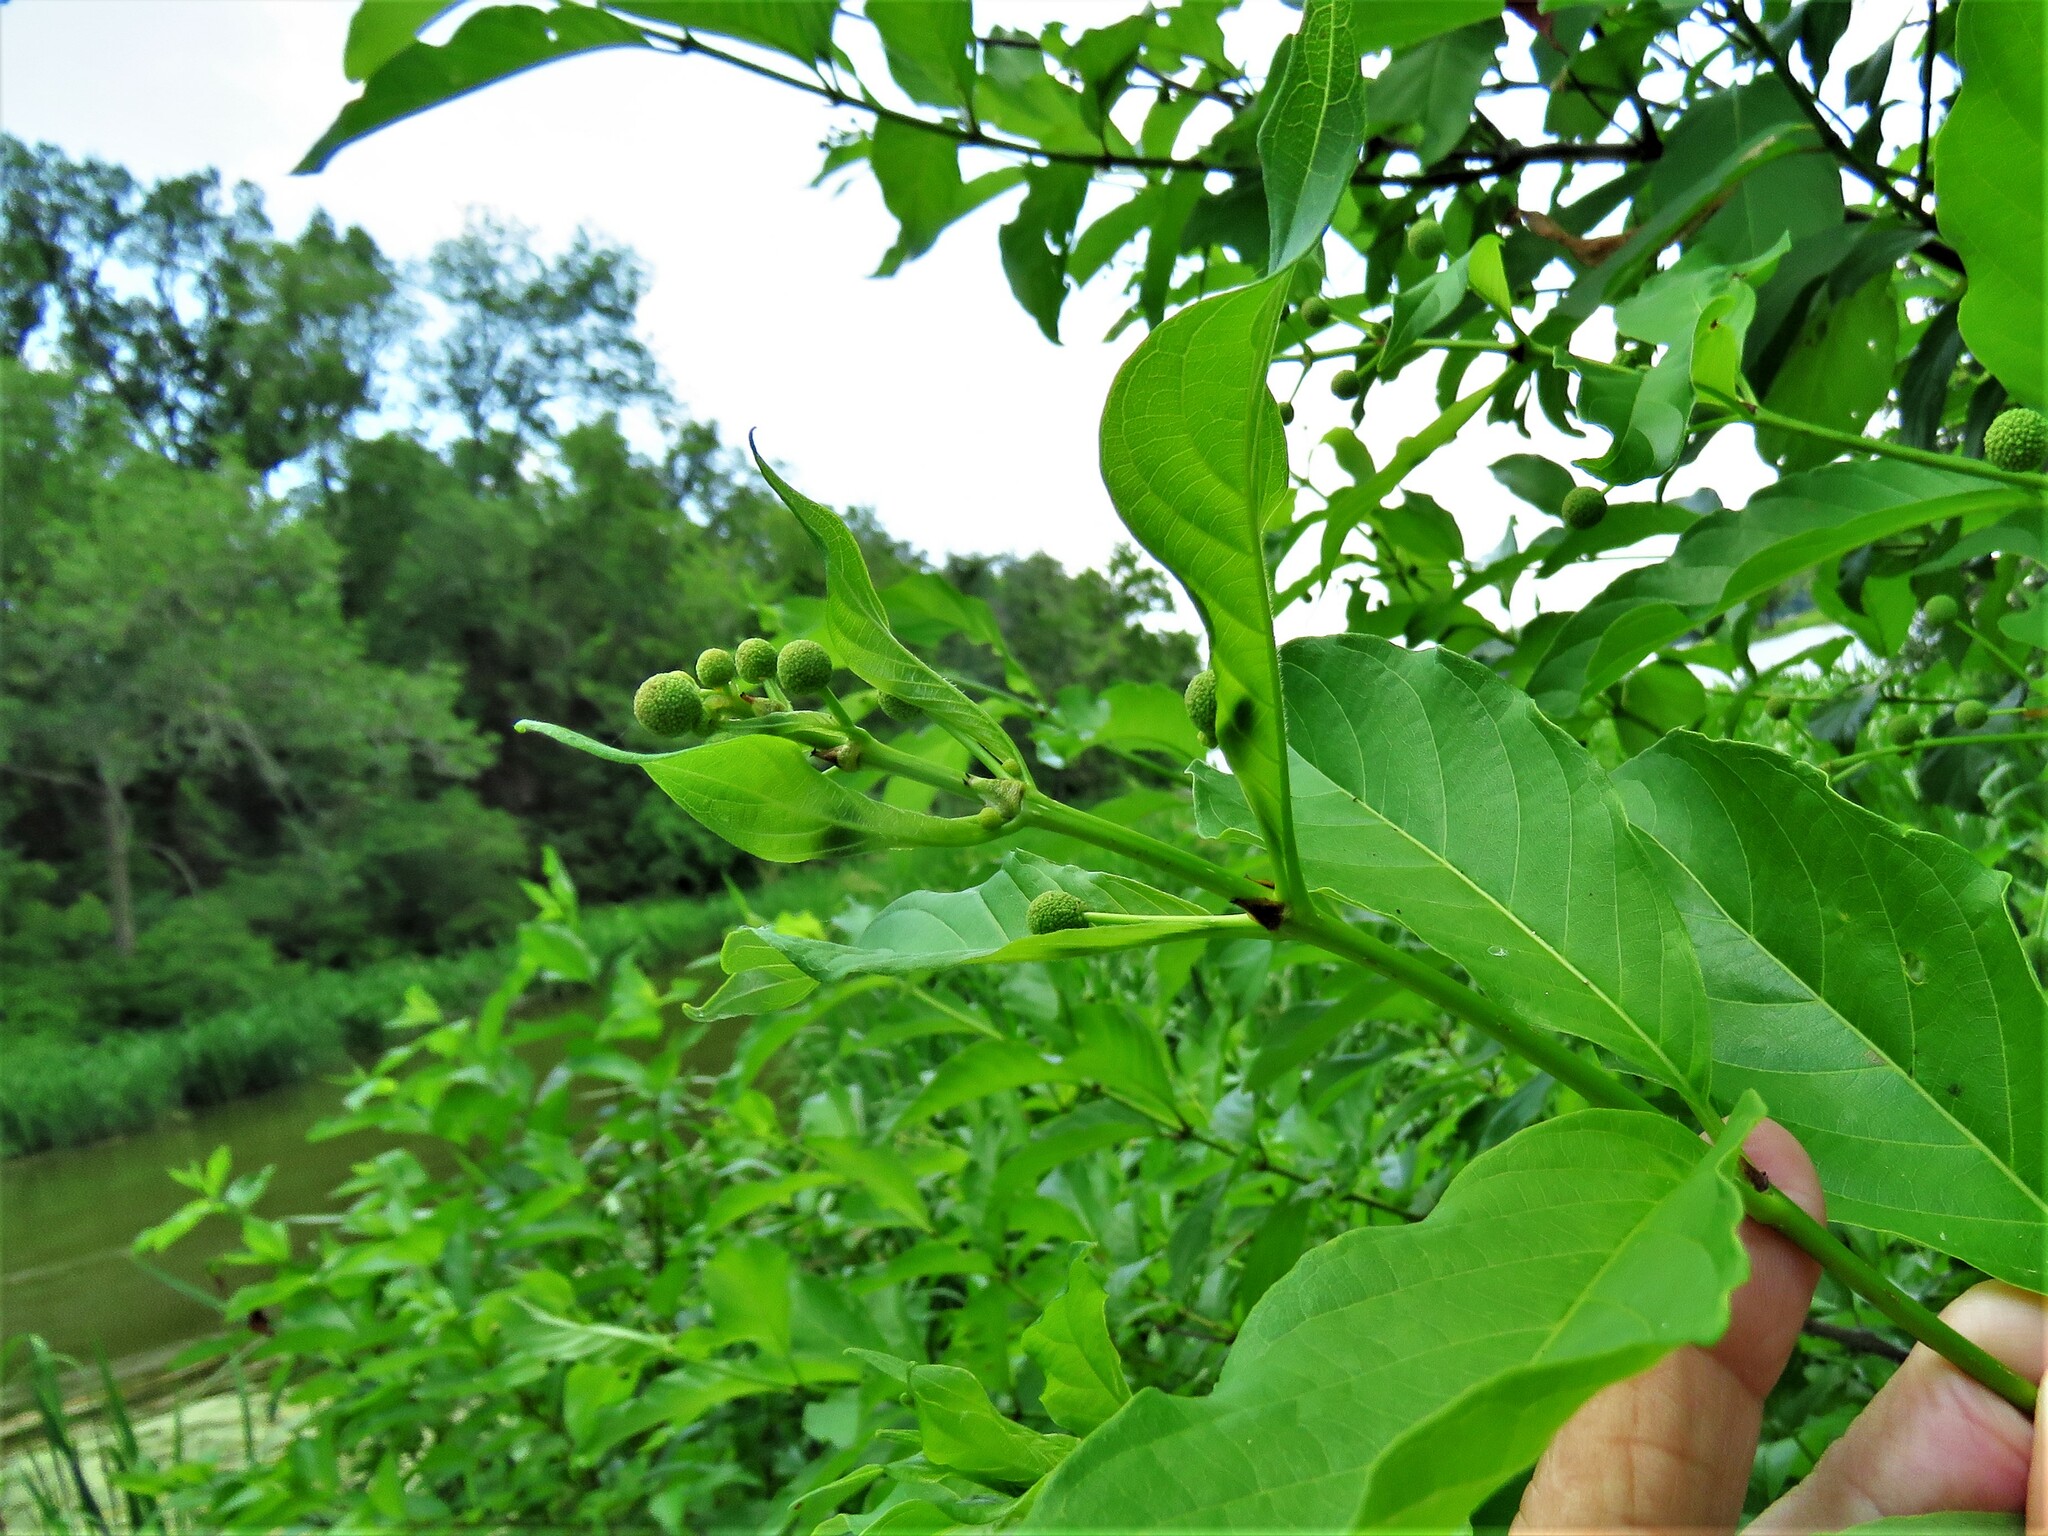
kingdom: Plantae
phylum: Tracheophyta
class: Magnoliopsida
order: Gentianales
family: Rubiaceae
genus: Cephalanthus
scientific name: Cephalanthus occidentalis
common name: Button-willow
